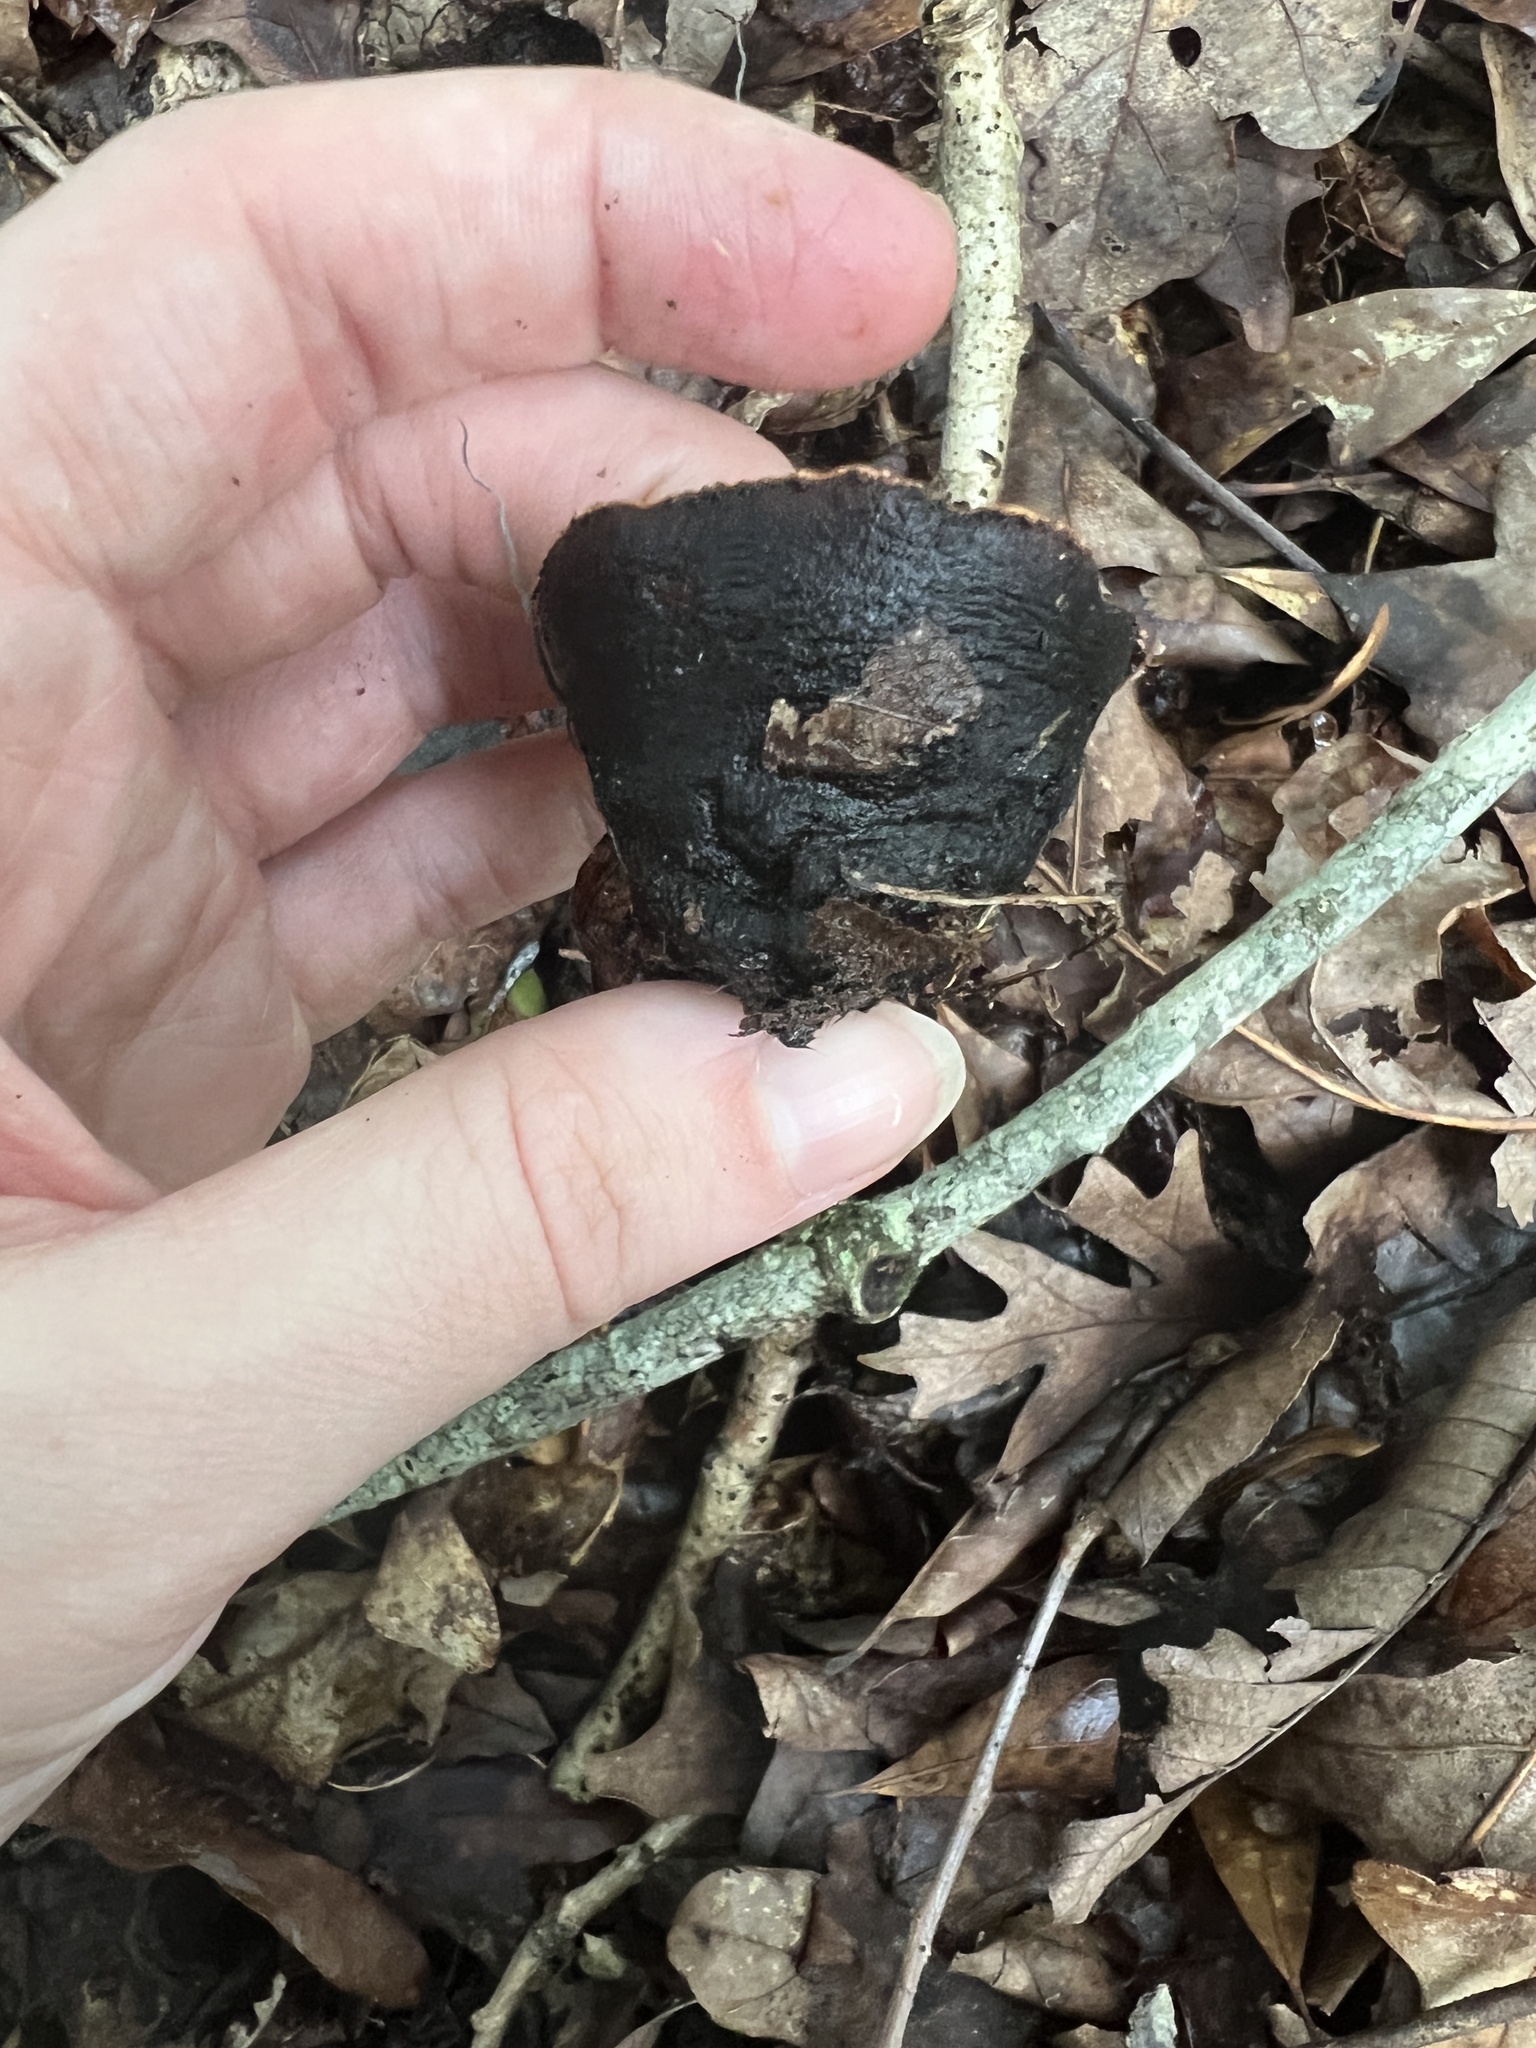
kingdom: Fungi
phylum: Ascomycota
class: Pezizomycetes
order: Pezizales
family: Sarcosomataceae
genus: Galiella
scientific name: Galiella rufa
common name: Hairy rubber cup
